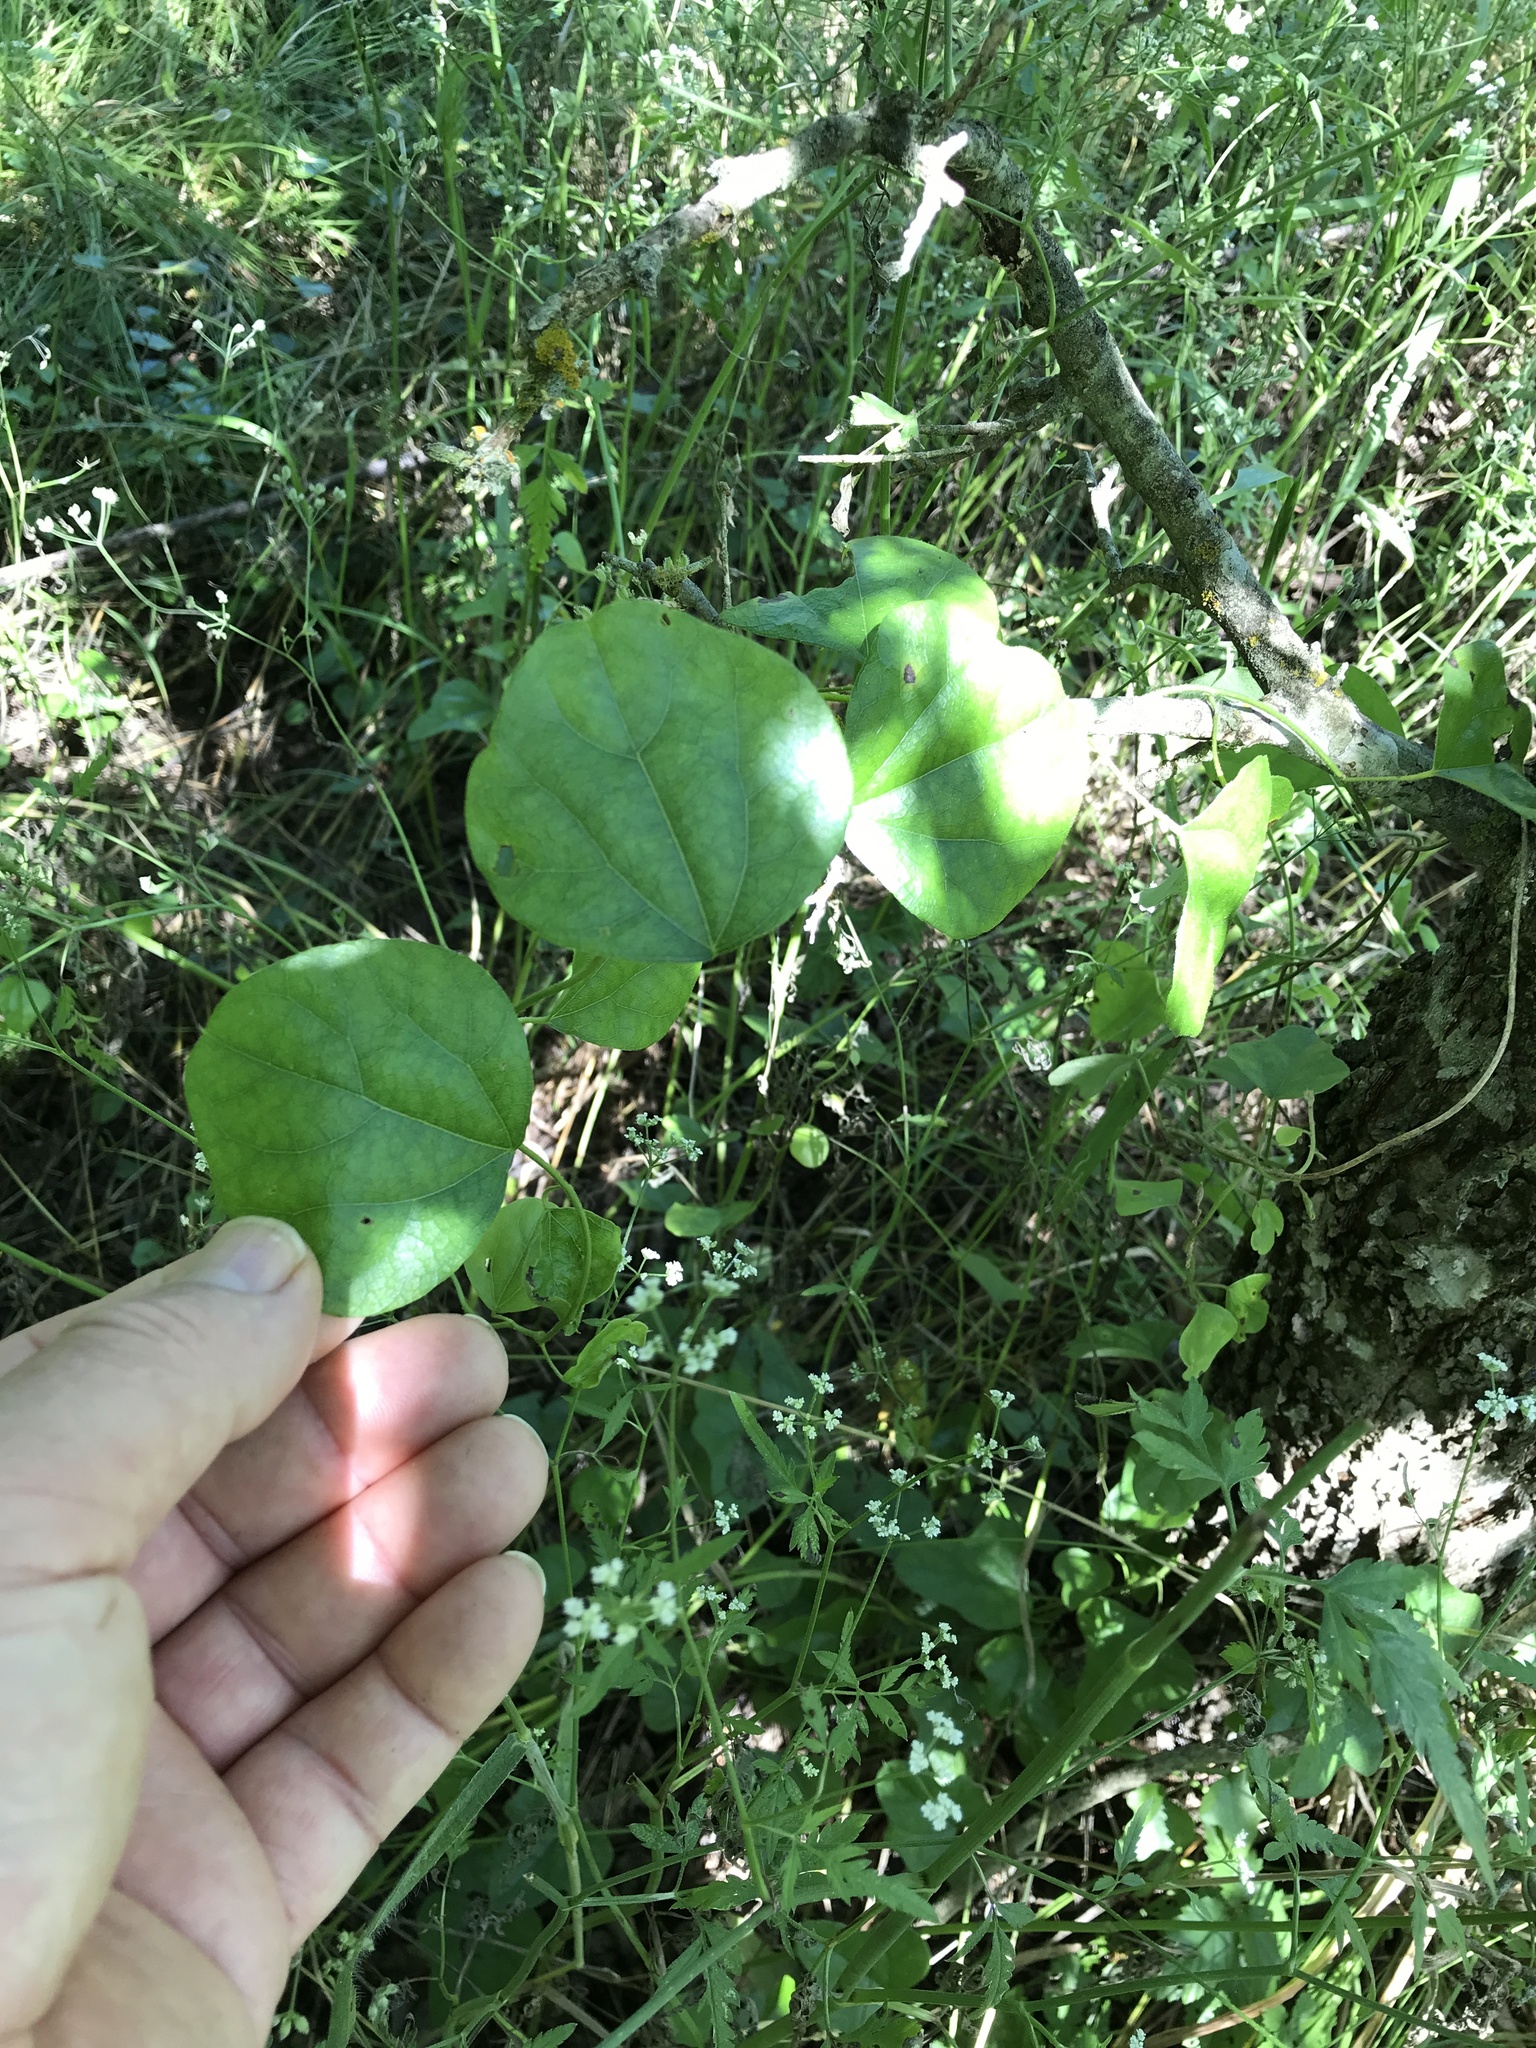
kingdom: Plantae
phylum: Tracheophyta
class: Magnoliopsida
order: Ranunculales
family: Menispermaceae
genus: Cocculus
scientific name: Cocculus carolinus
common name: Carolina moonseed
